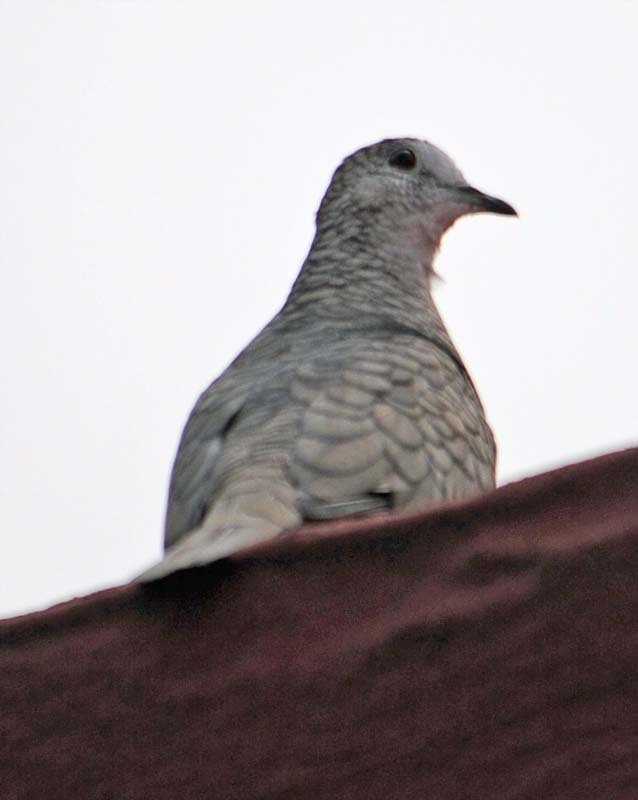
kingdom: Animalia
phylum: Chordata
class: Aves
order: Columbiformes
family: Columbidae
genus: Columbina
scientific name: Columbina inca
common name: Inca dove
